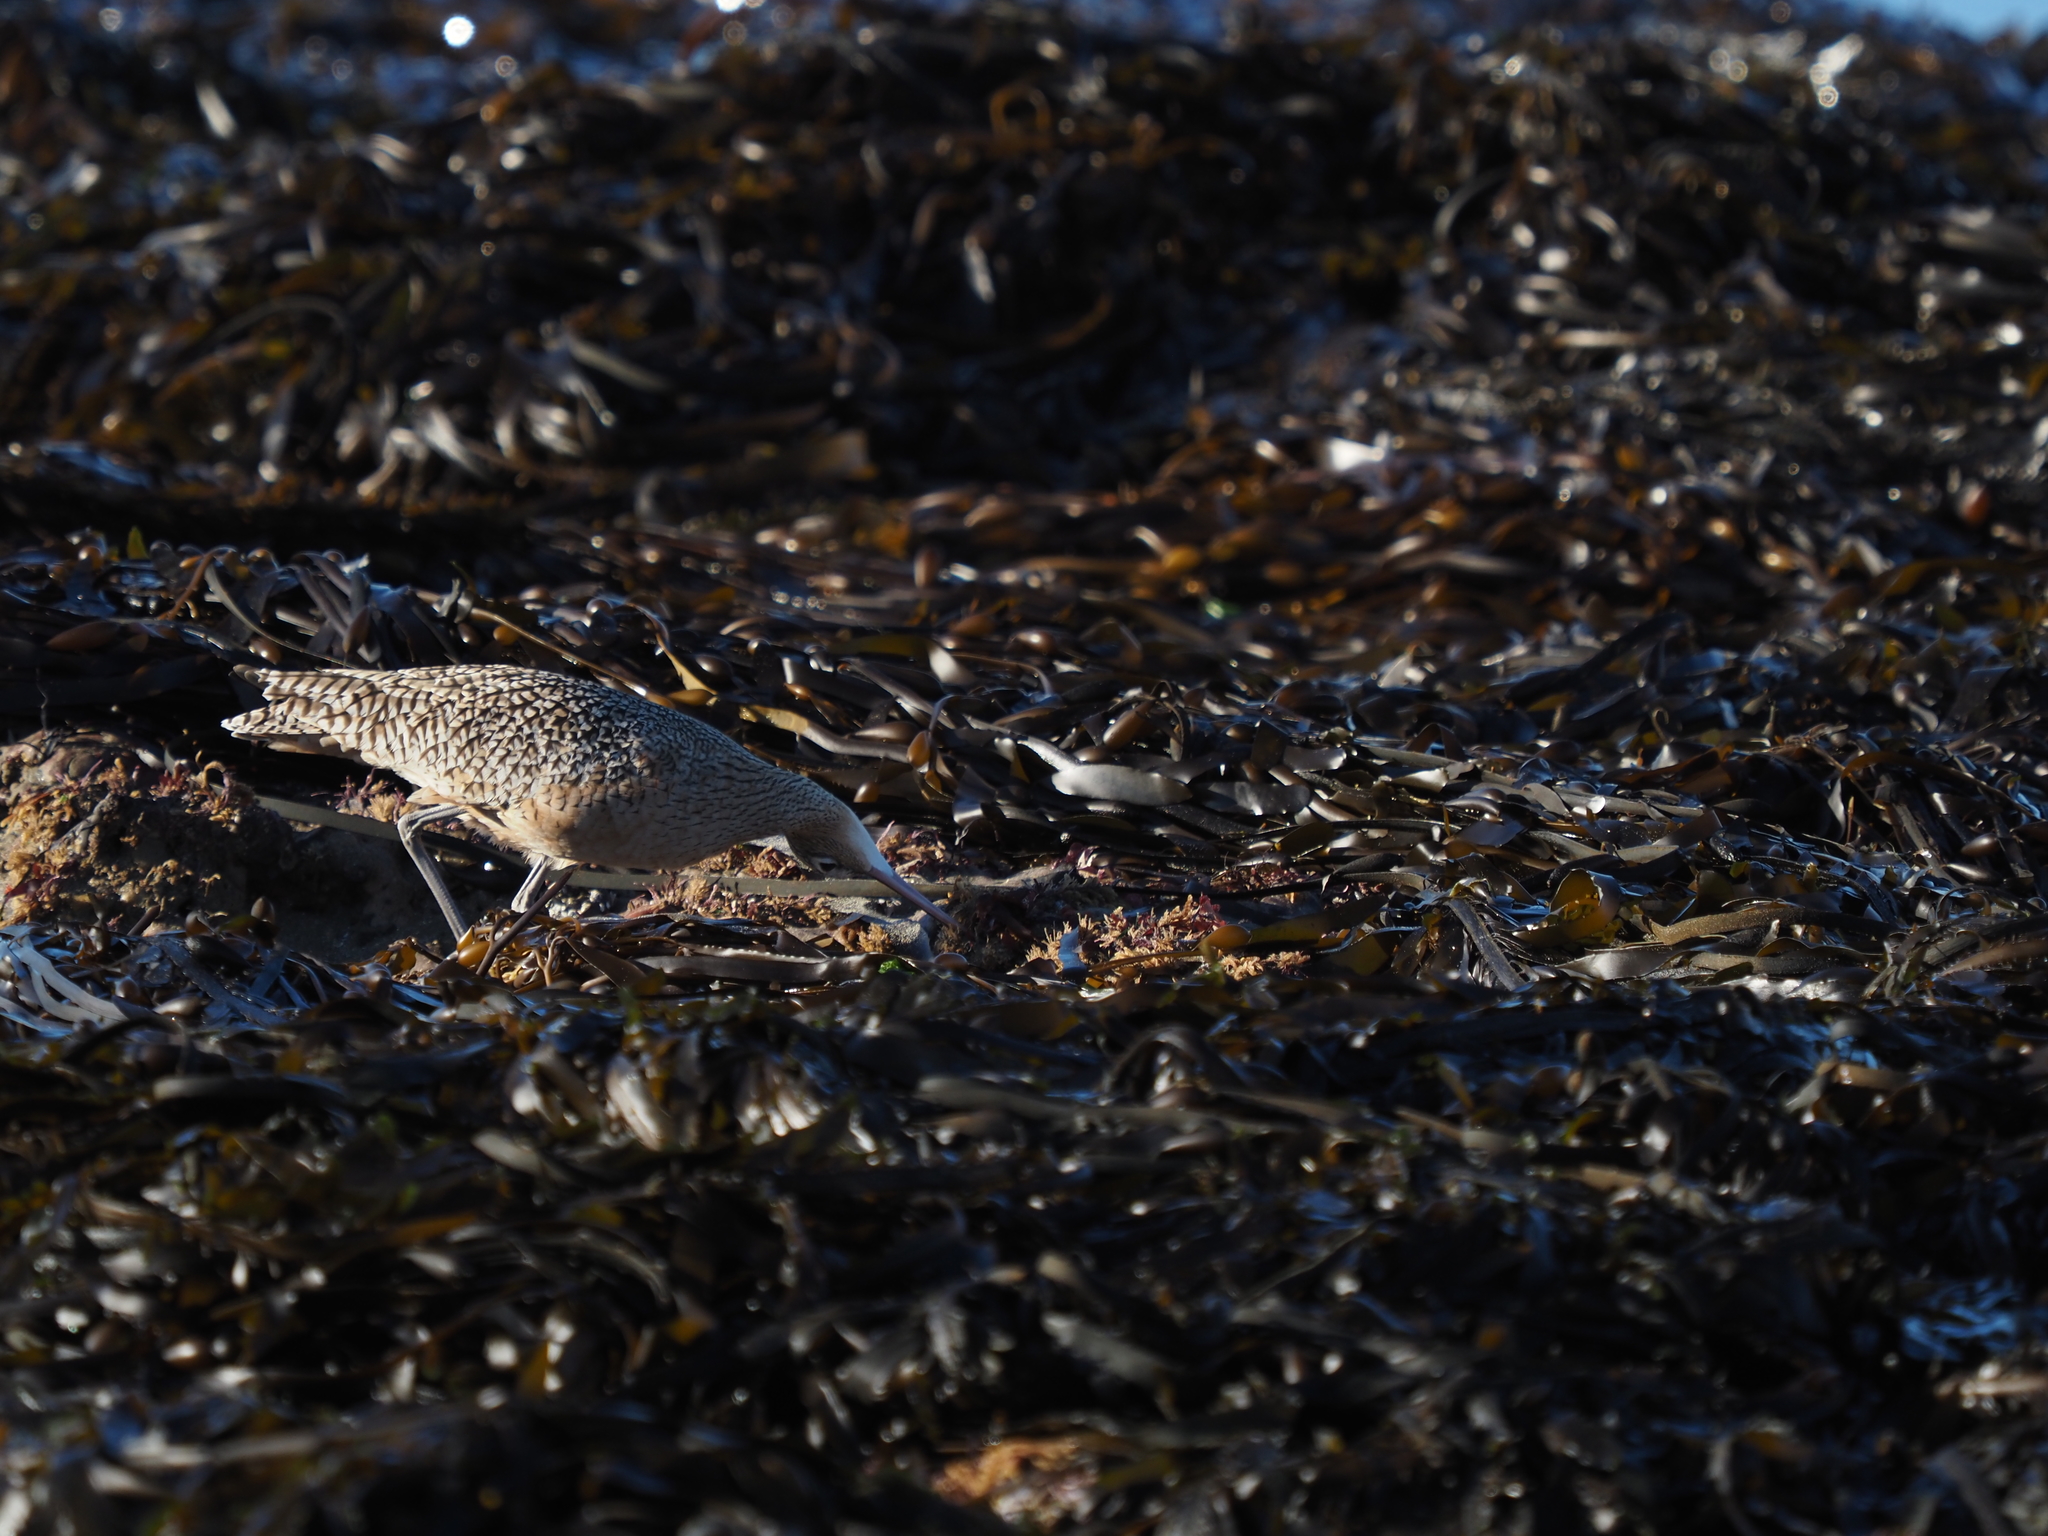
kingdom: Animalia
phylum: Chordata
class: Aves
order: Charadriiformes
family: Scolopacidae
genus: Numenius
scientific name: Numenius americanus
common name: Long-billed curlew
